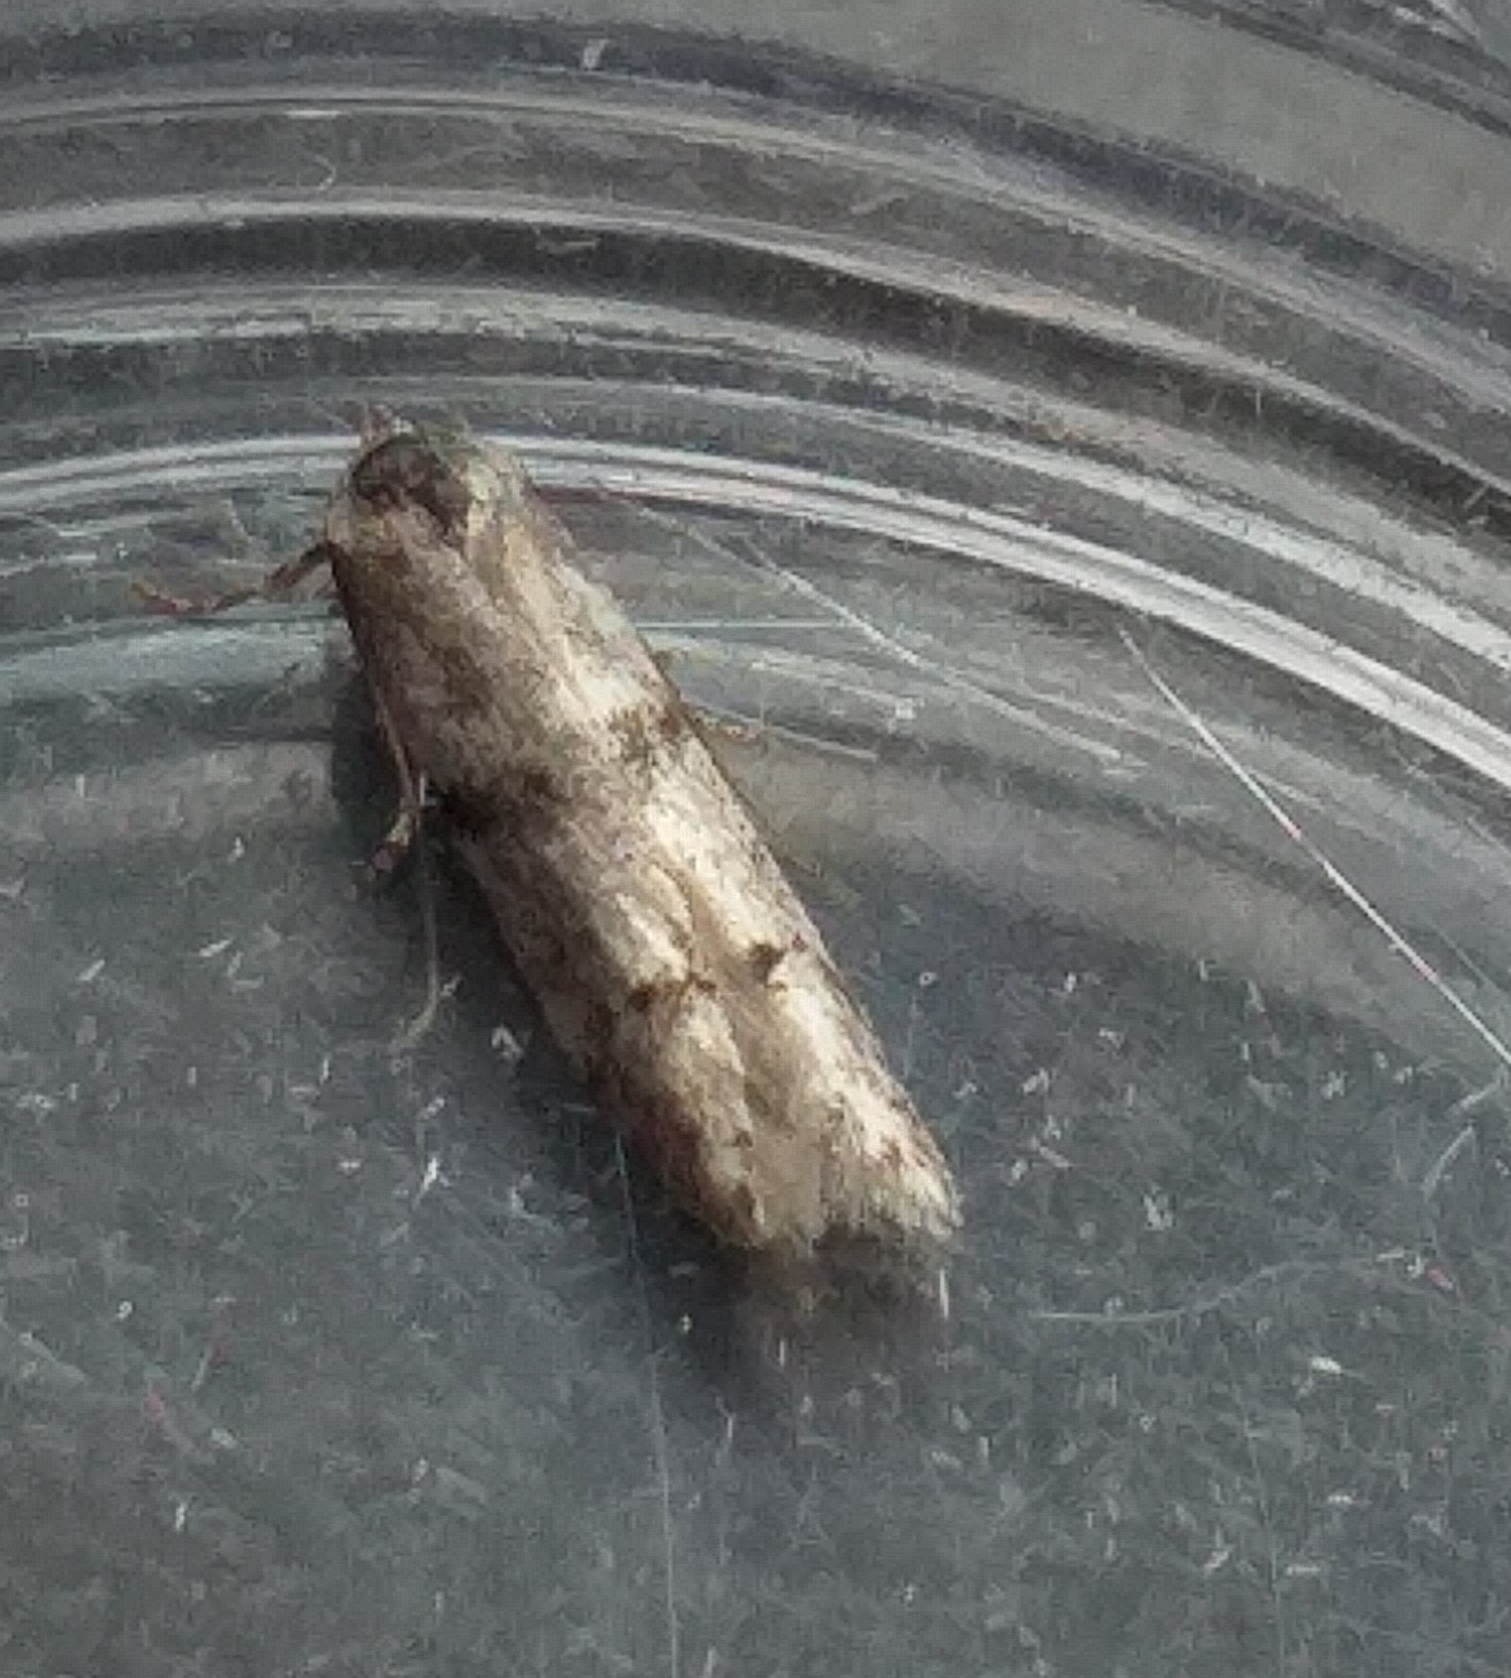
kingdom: Animalia
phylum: Arthropoda
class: Insecta
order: Lepidoptera
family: Blastobasidae
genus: Blastobasis
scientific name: Blastobasis rebeli
